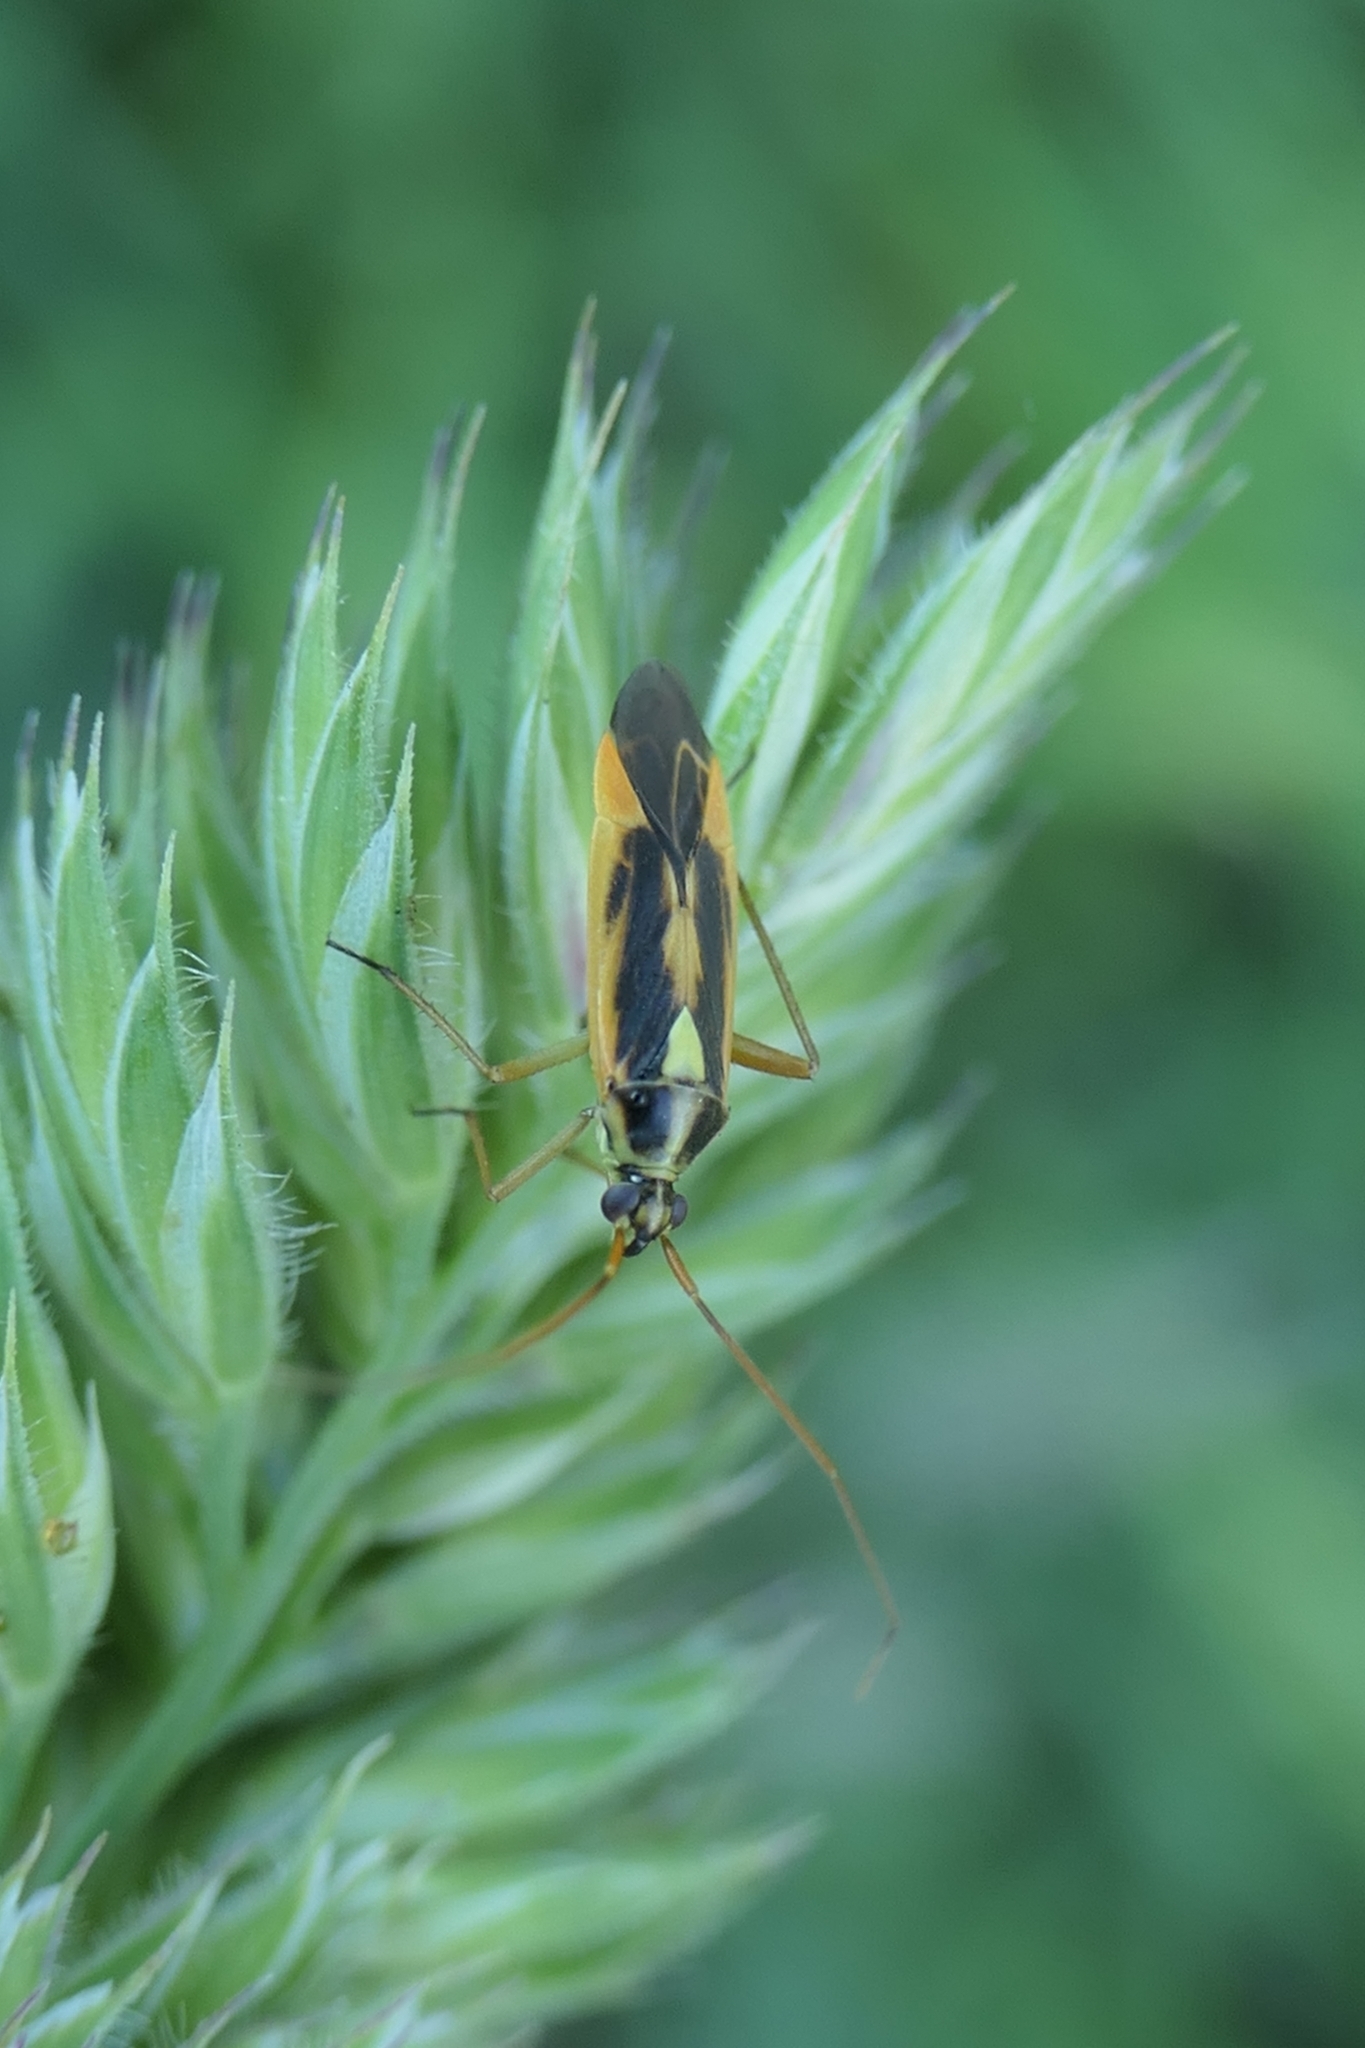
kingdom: Animalia
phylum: Arthropoda
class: Insecta
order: Hemiptera
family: Miridae
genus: Stenotus
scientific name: Stenotus binotatus
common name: Plant bug
